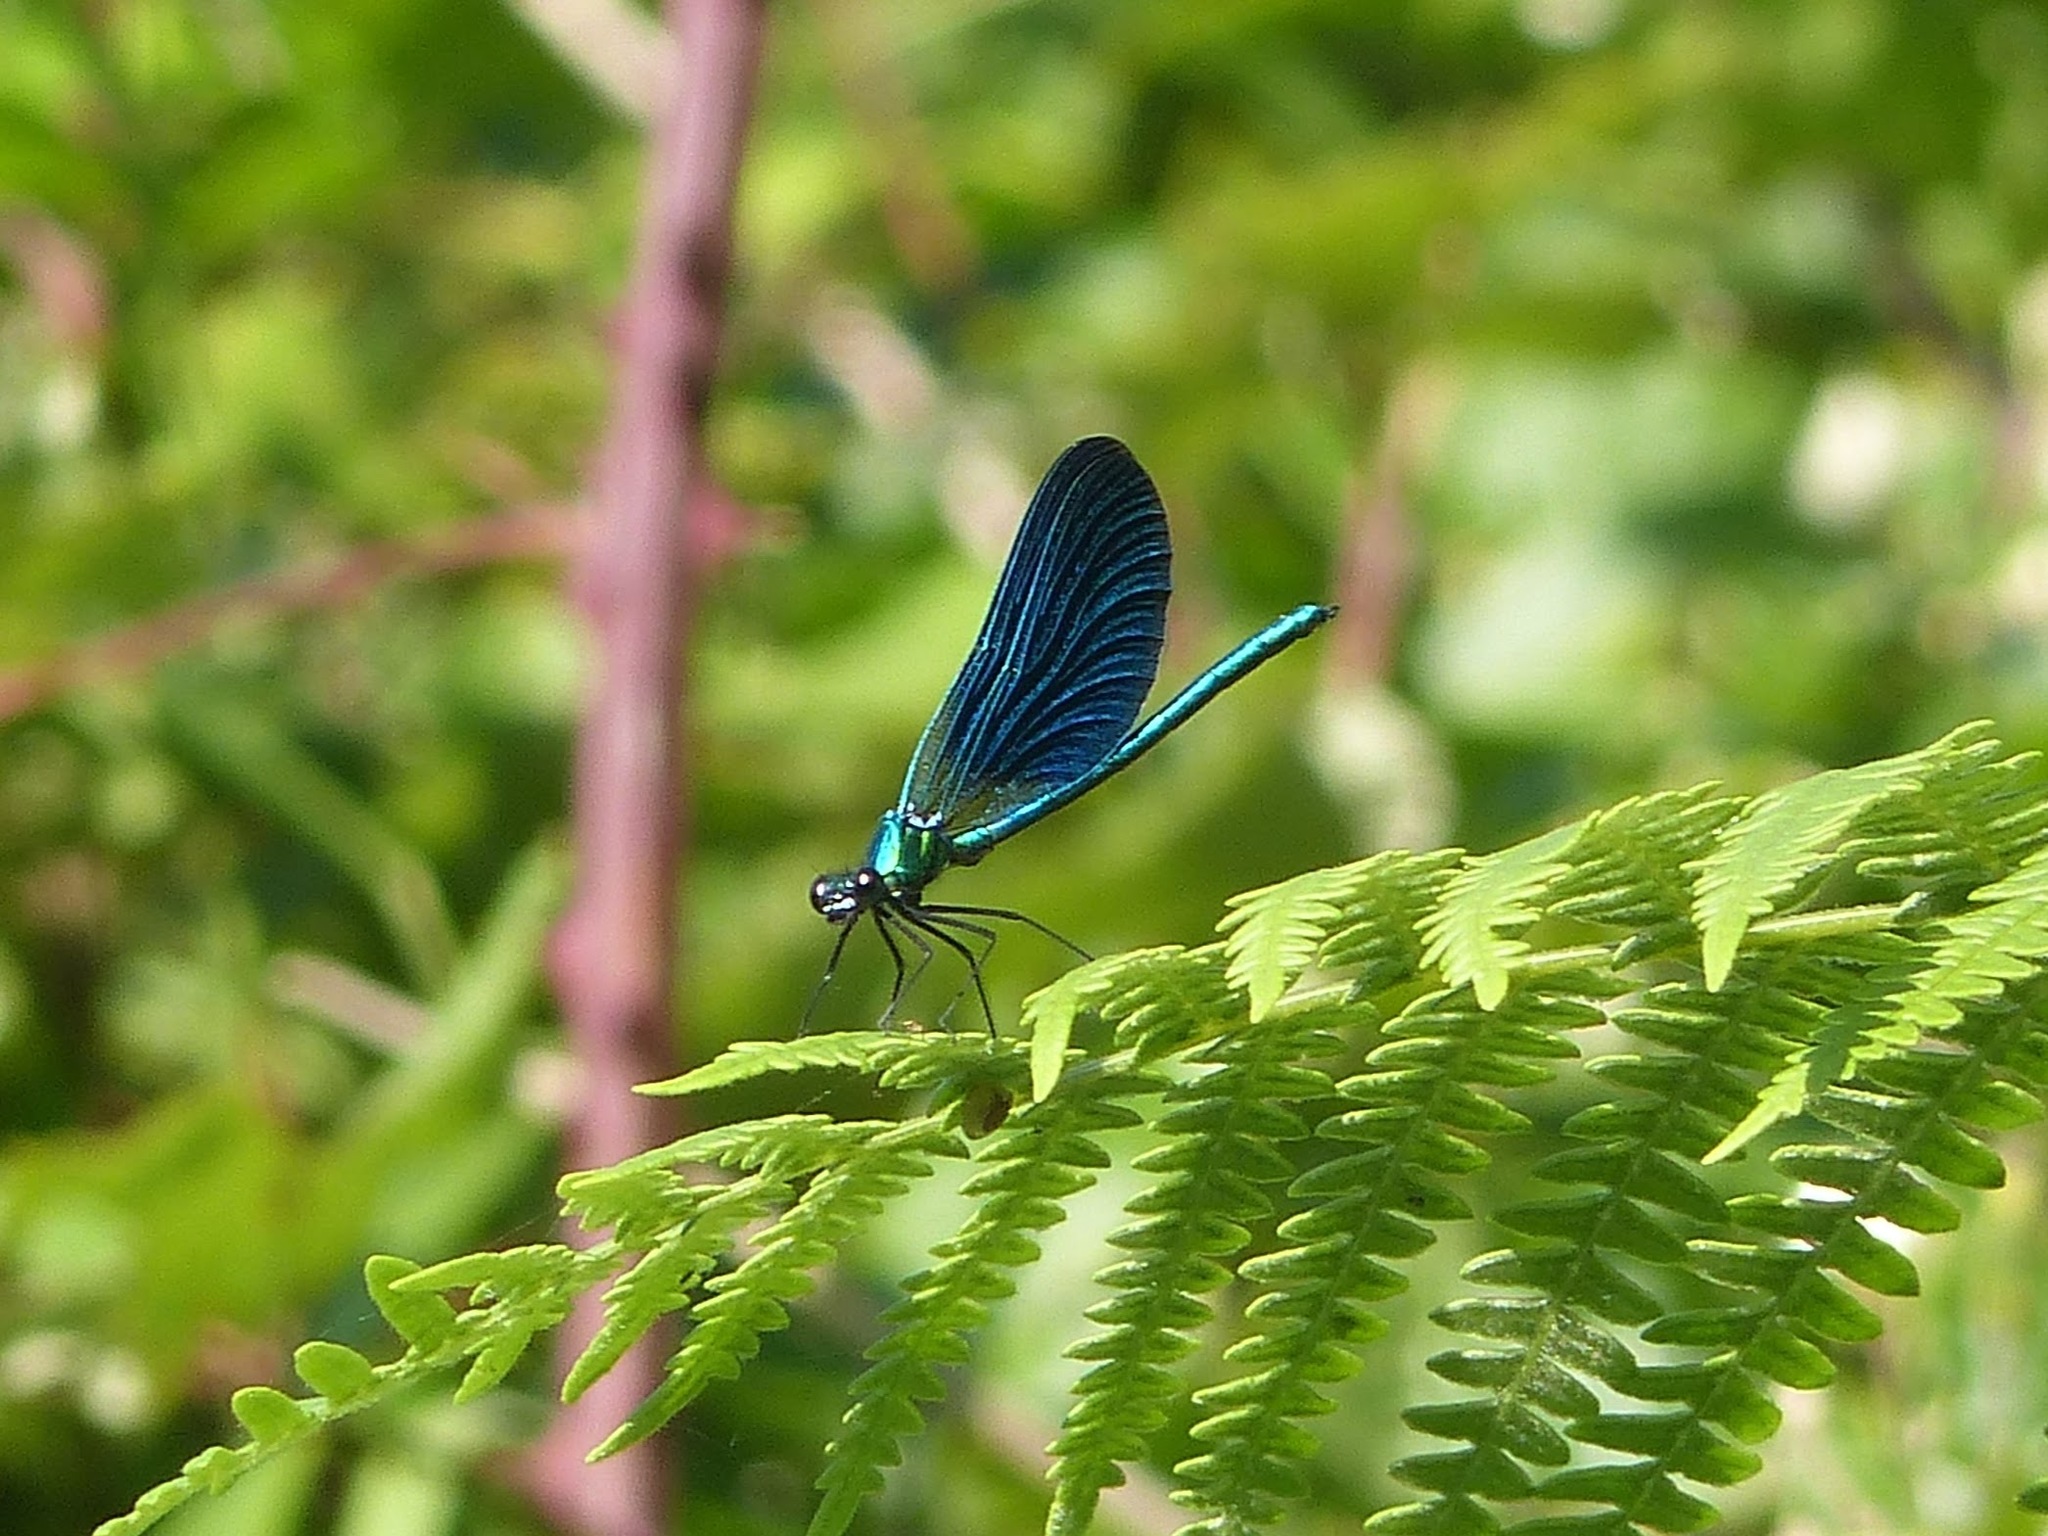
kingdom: Animalia
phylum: Arthropoda
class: Insecta
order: Odonata
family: Calopterygidae
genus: Calopteryx
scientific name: Calopteryx virgo
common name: Beautiful demoiselle
